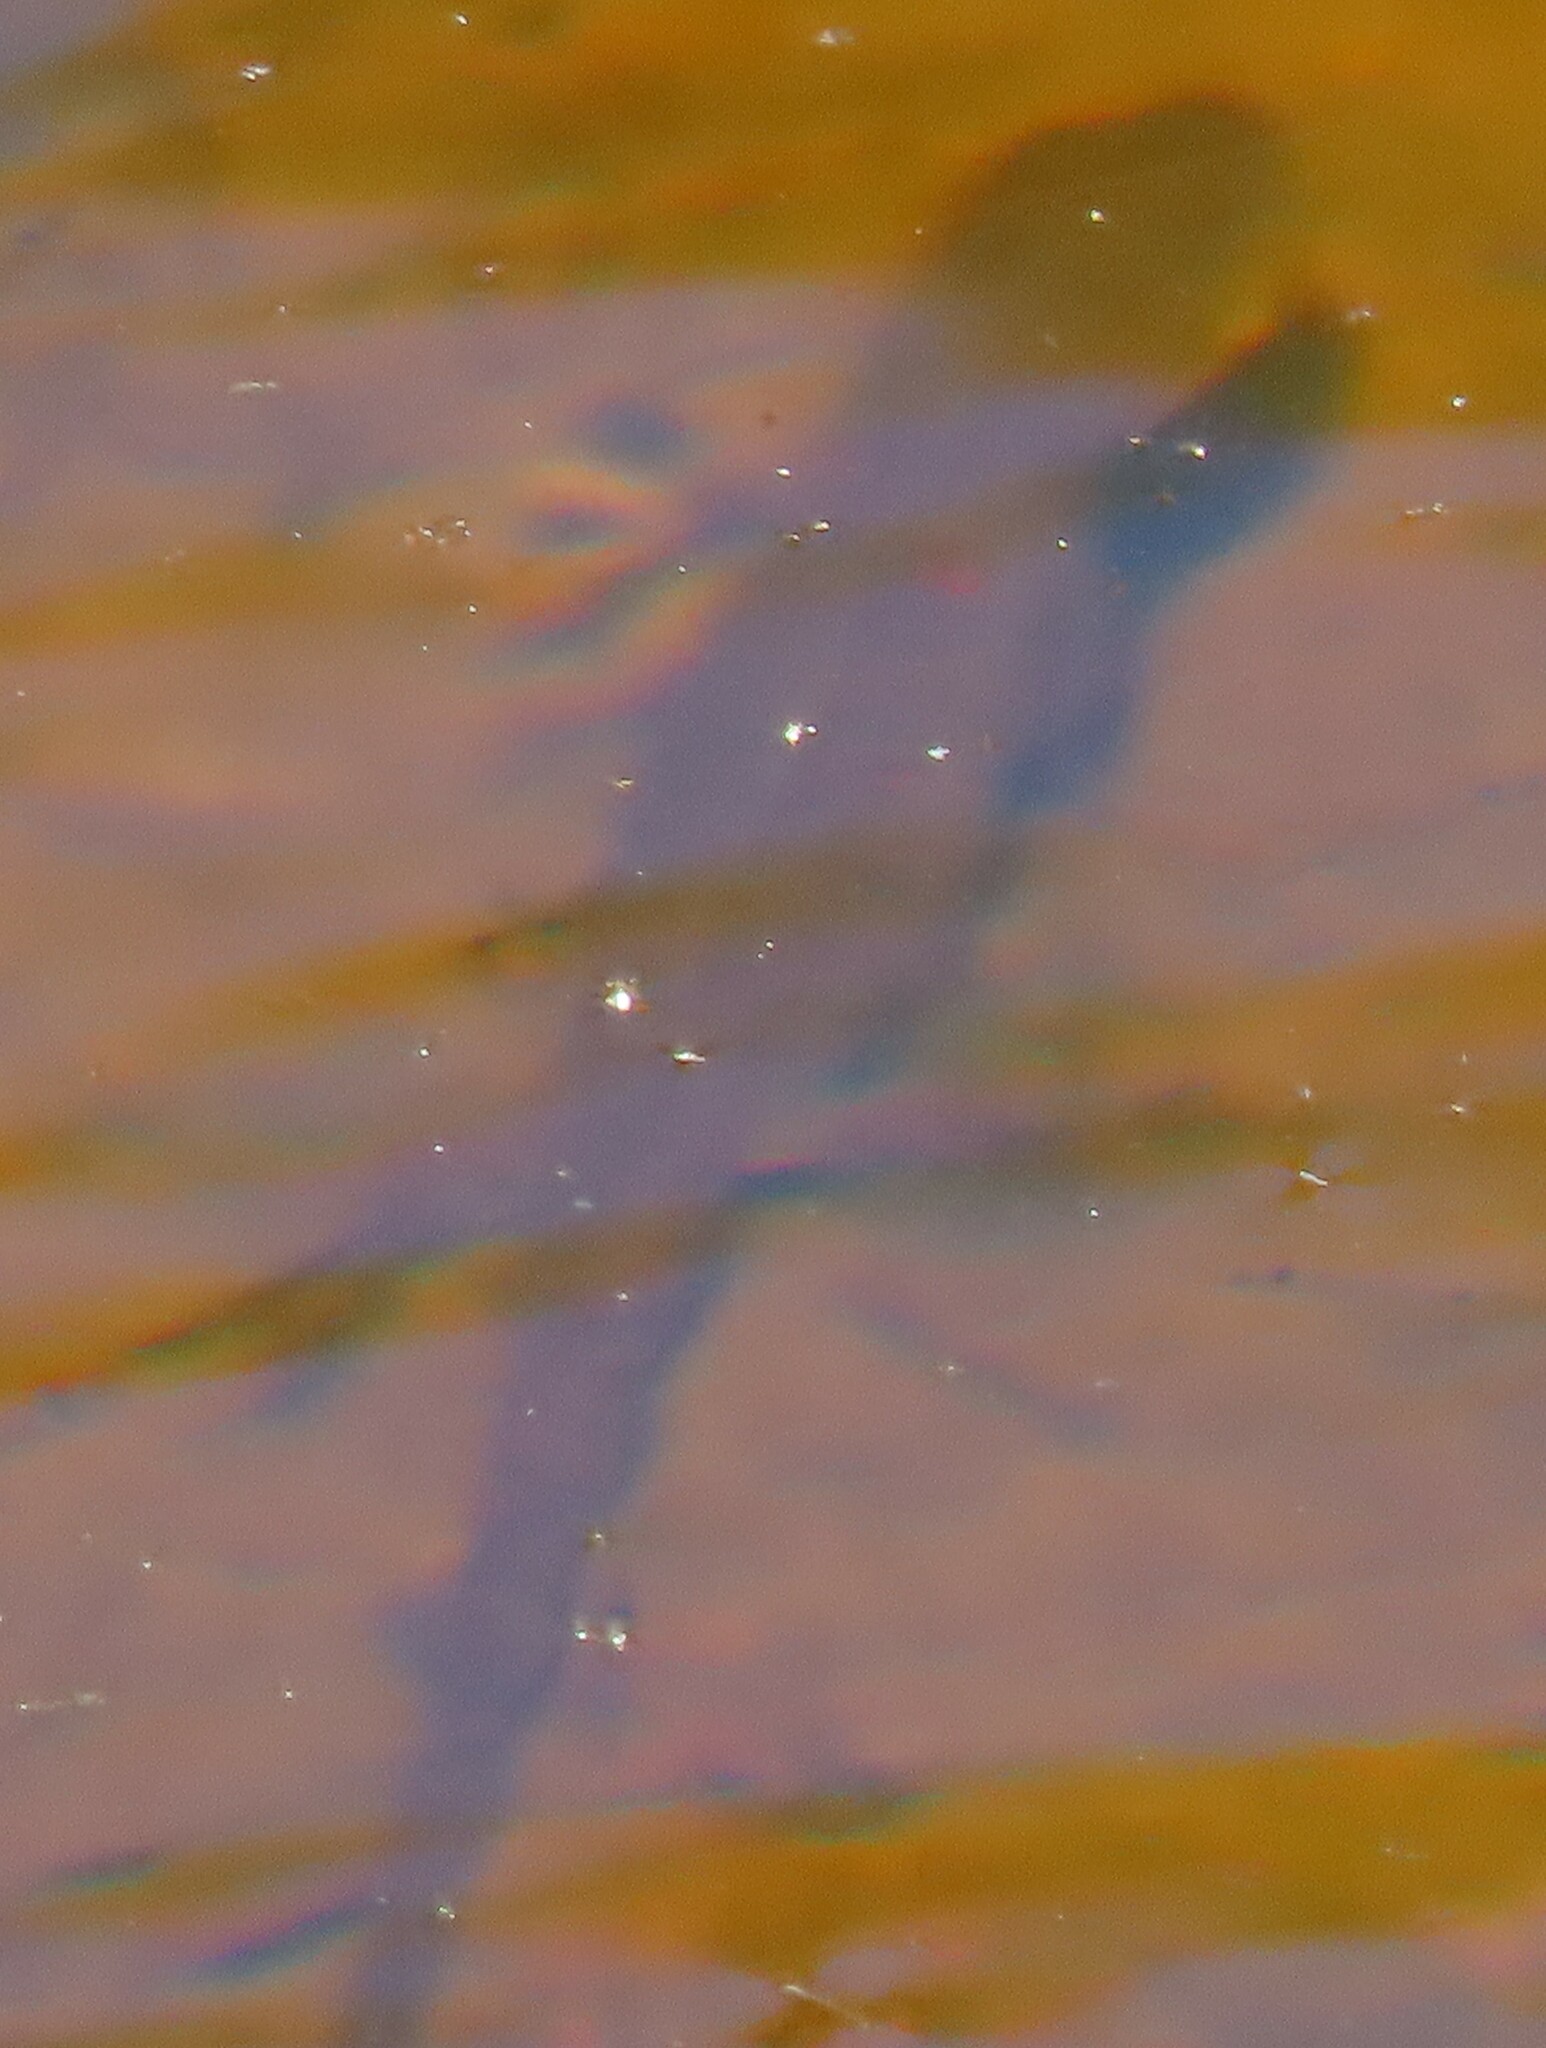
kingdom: Animalia
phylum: Chordata
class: Amphibia
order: Caudata
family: Salamandridae
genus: Notophthalmus
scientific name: Notophthalmus viridescens
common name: Eastern newt
